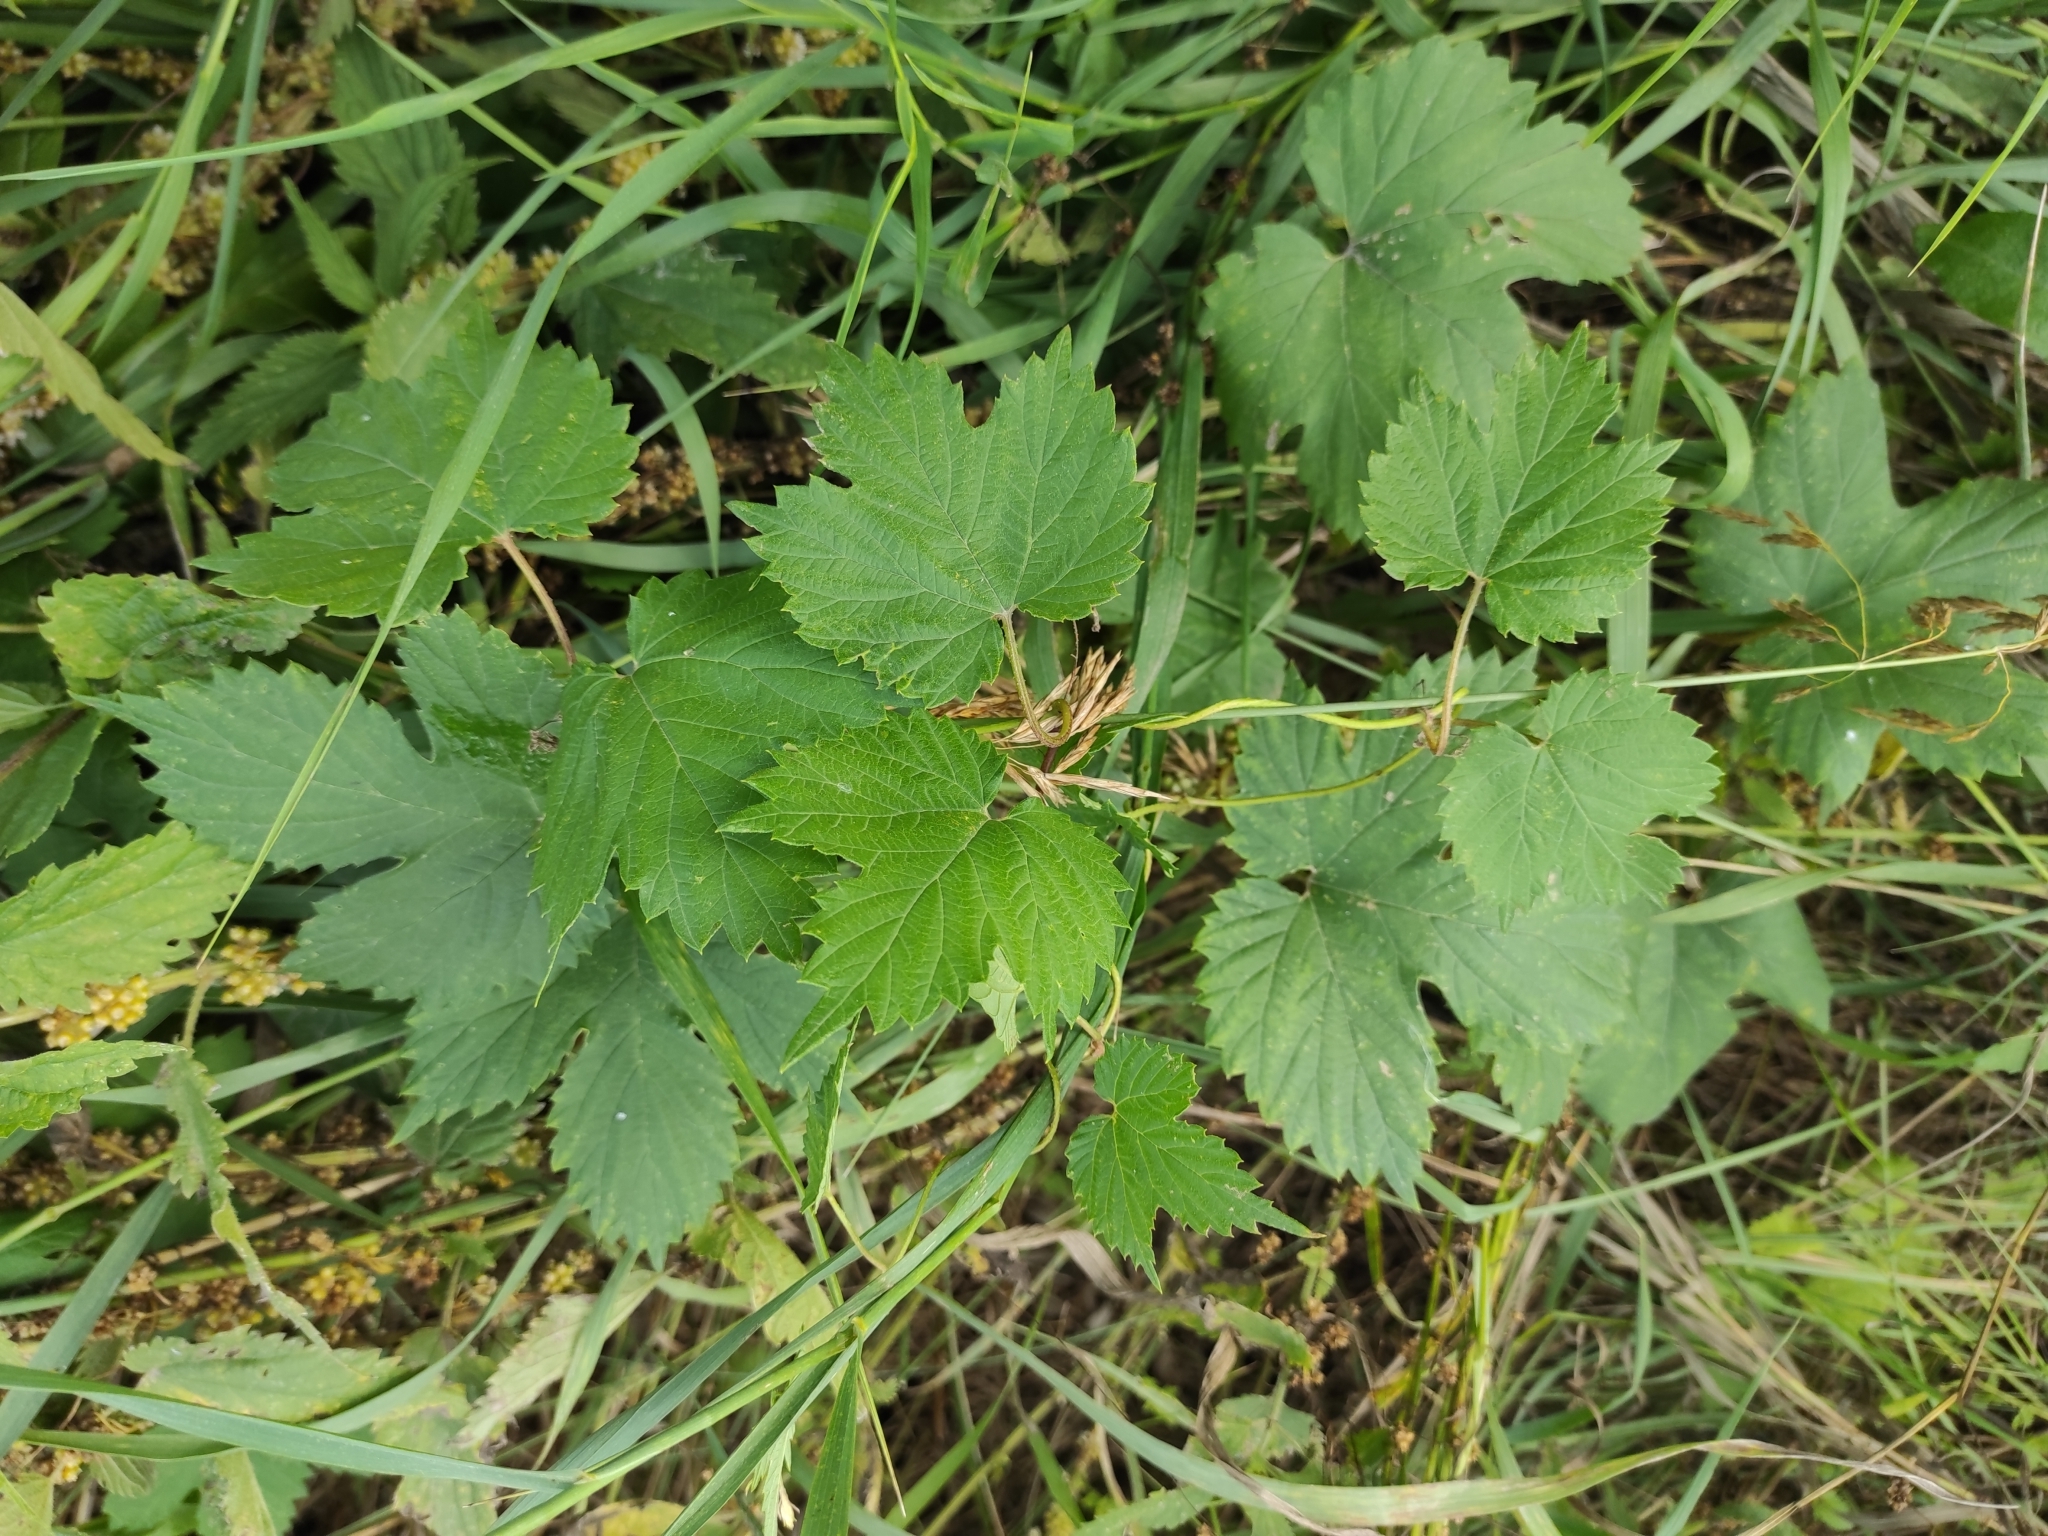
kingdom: Plantae
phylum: Tracheophyta
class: Magnoliopsida
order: Rosales
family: Cannabaceae
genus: Humulus
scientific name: Humulus lupulus
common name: Hop
